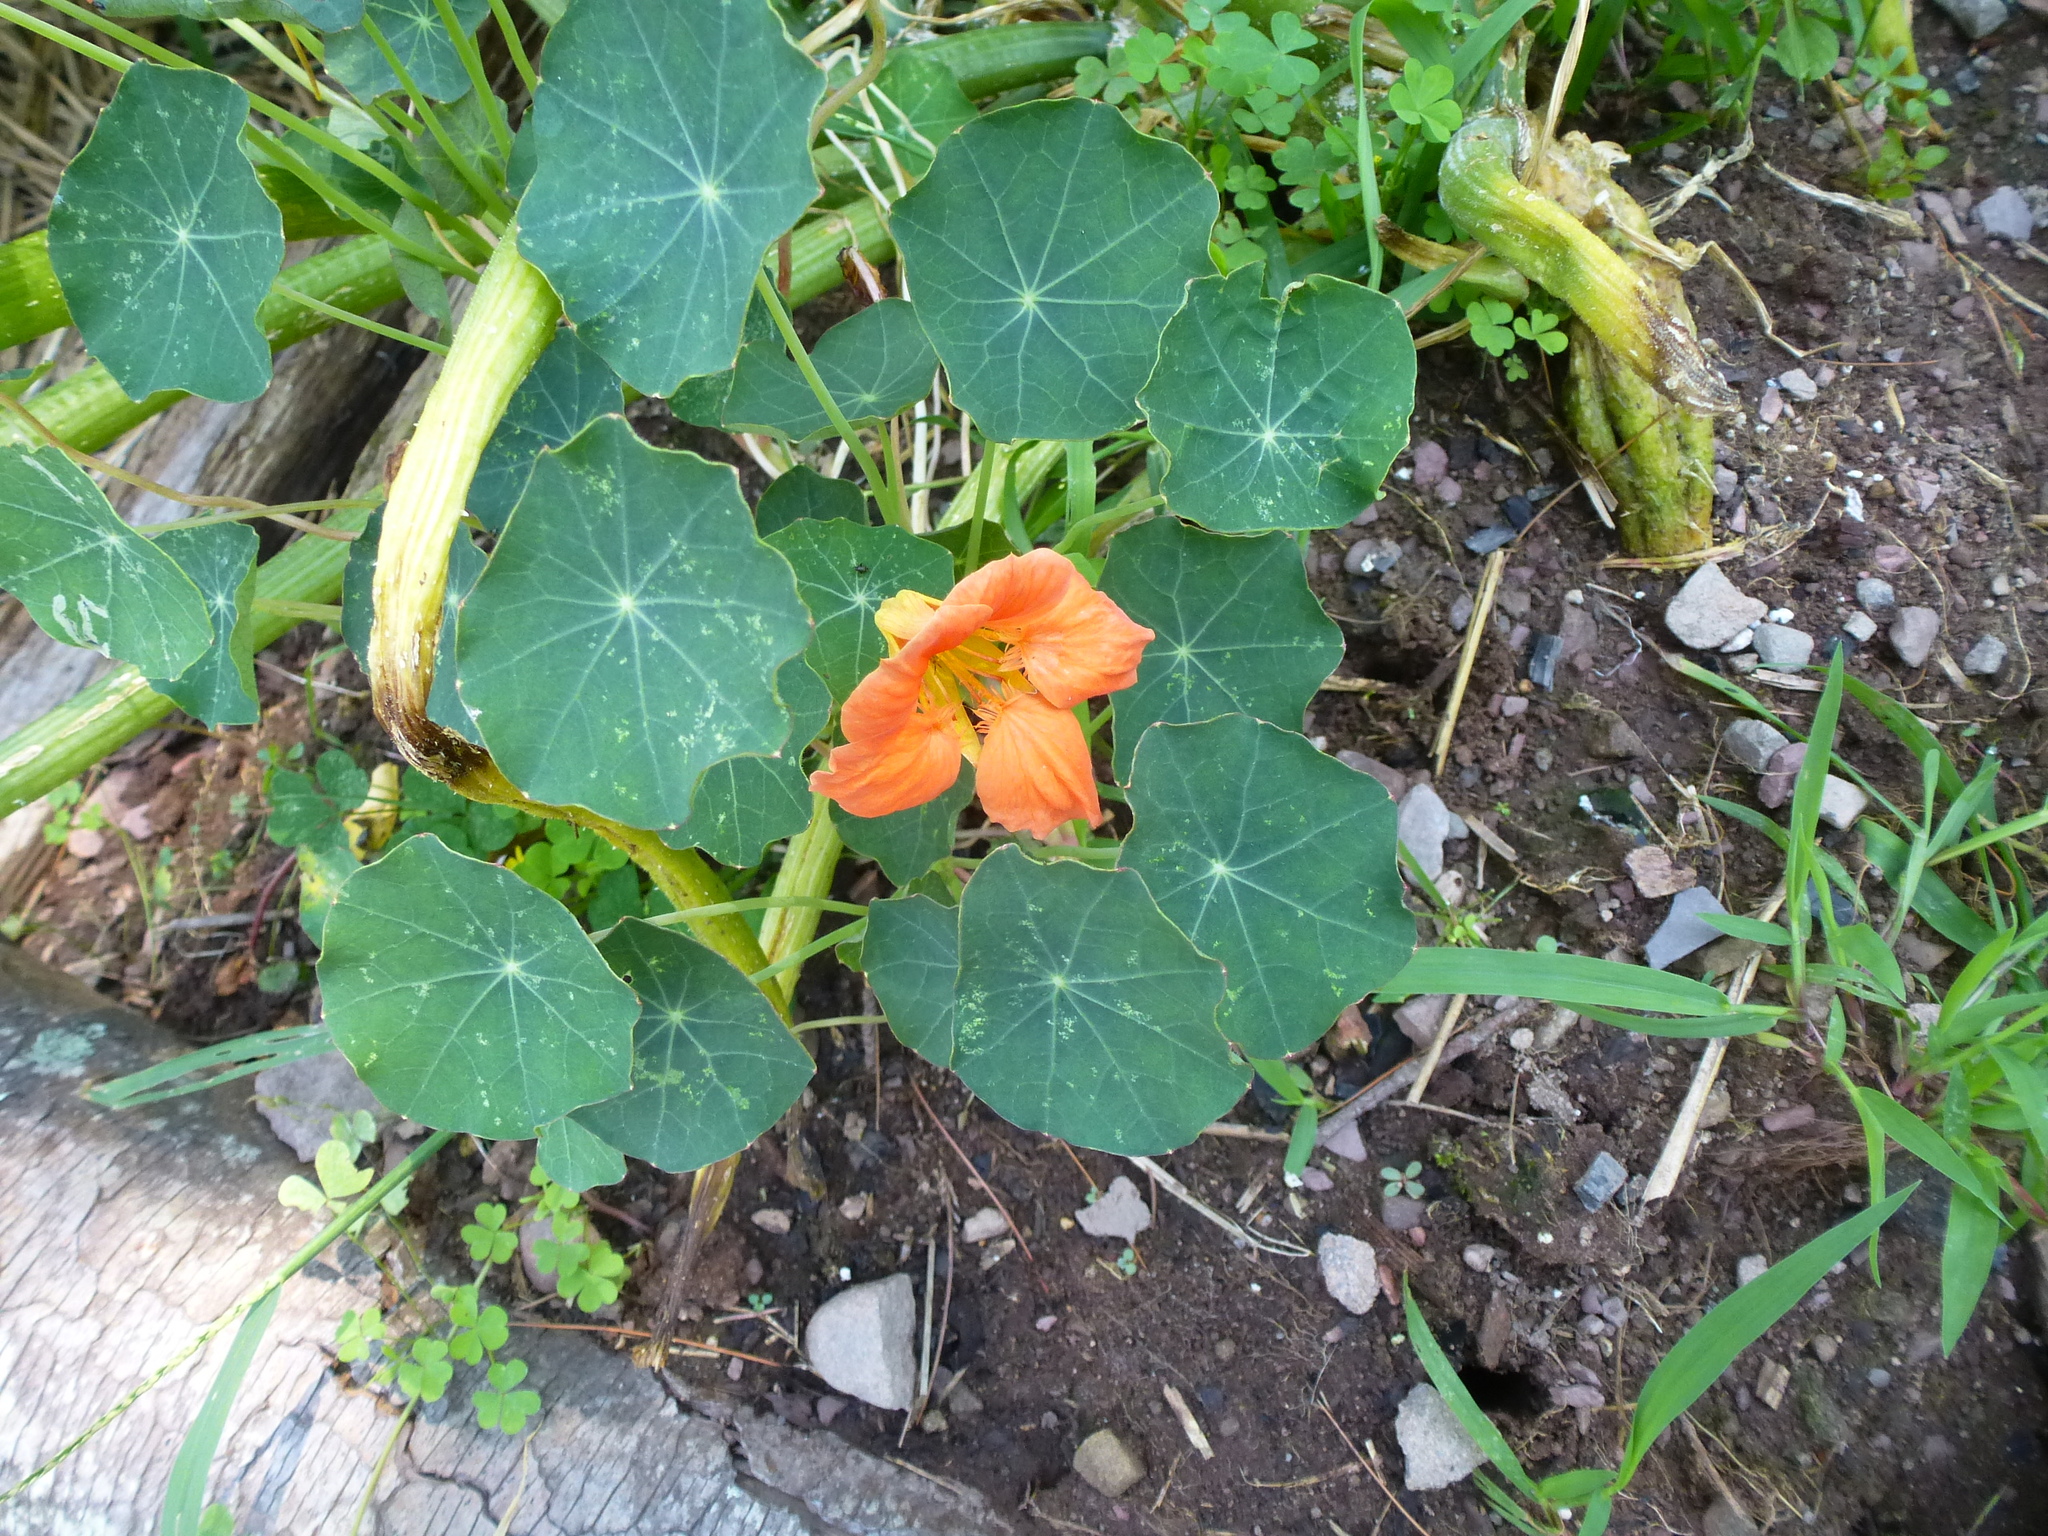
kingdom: Plantae
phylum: Tracheophyta
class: Magnoliopsida
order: Brassicales
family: Tropaeolaceae
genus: Tropaeolum
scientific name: Tropaeolum majus
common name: Nasturtium
